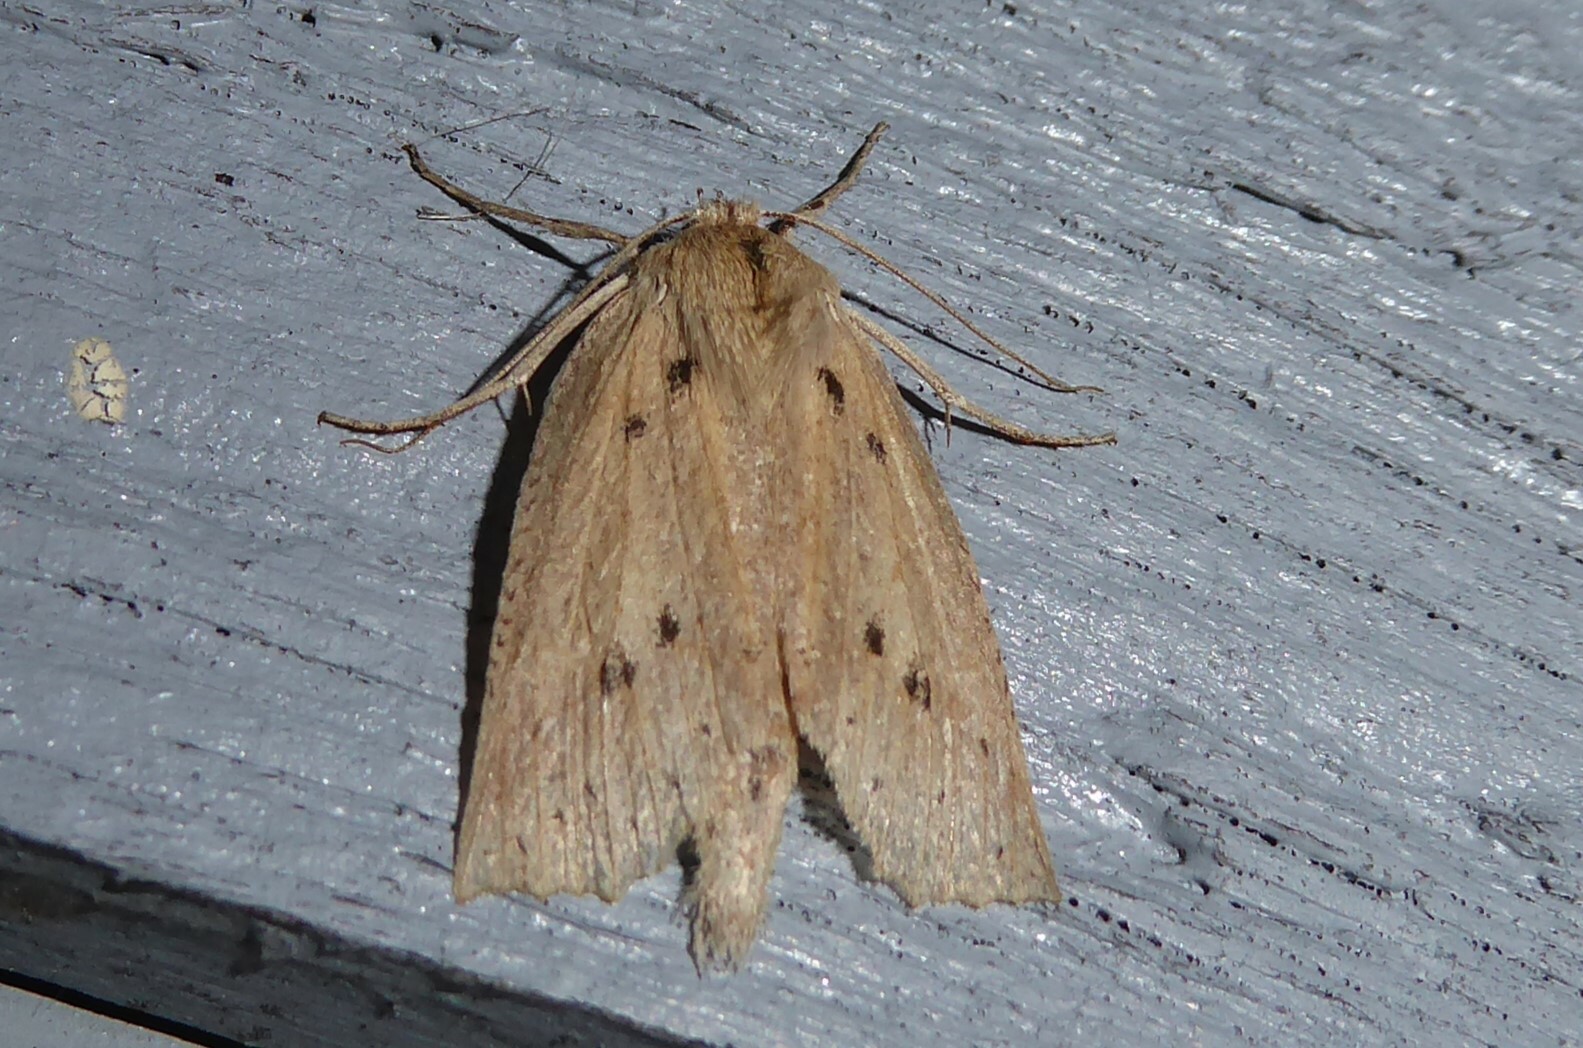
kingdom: Animalia
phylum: Arthropoda
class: Insecta
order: Lepidoptera
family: Geometridae
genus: Declana
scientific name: Declana leptomera
